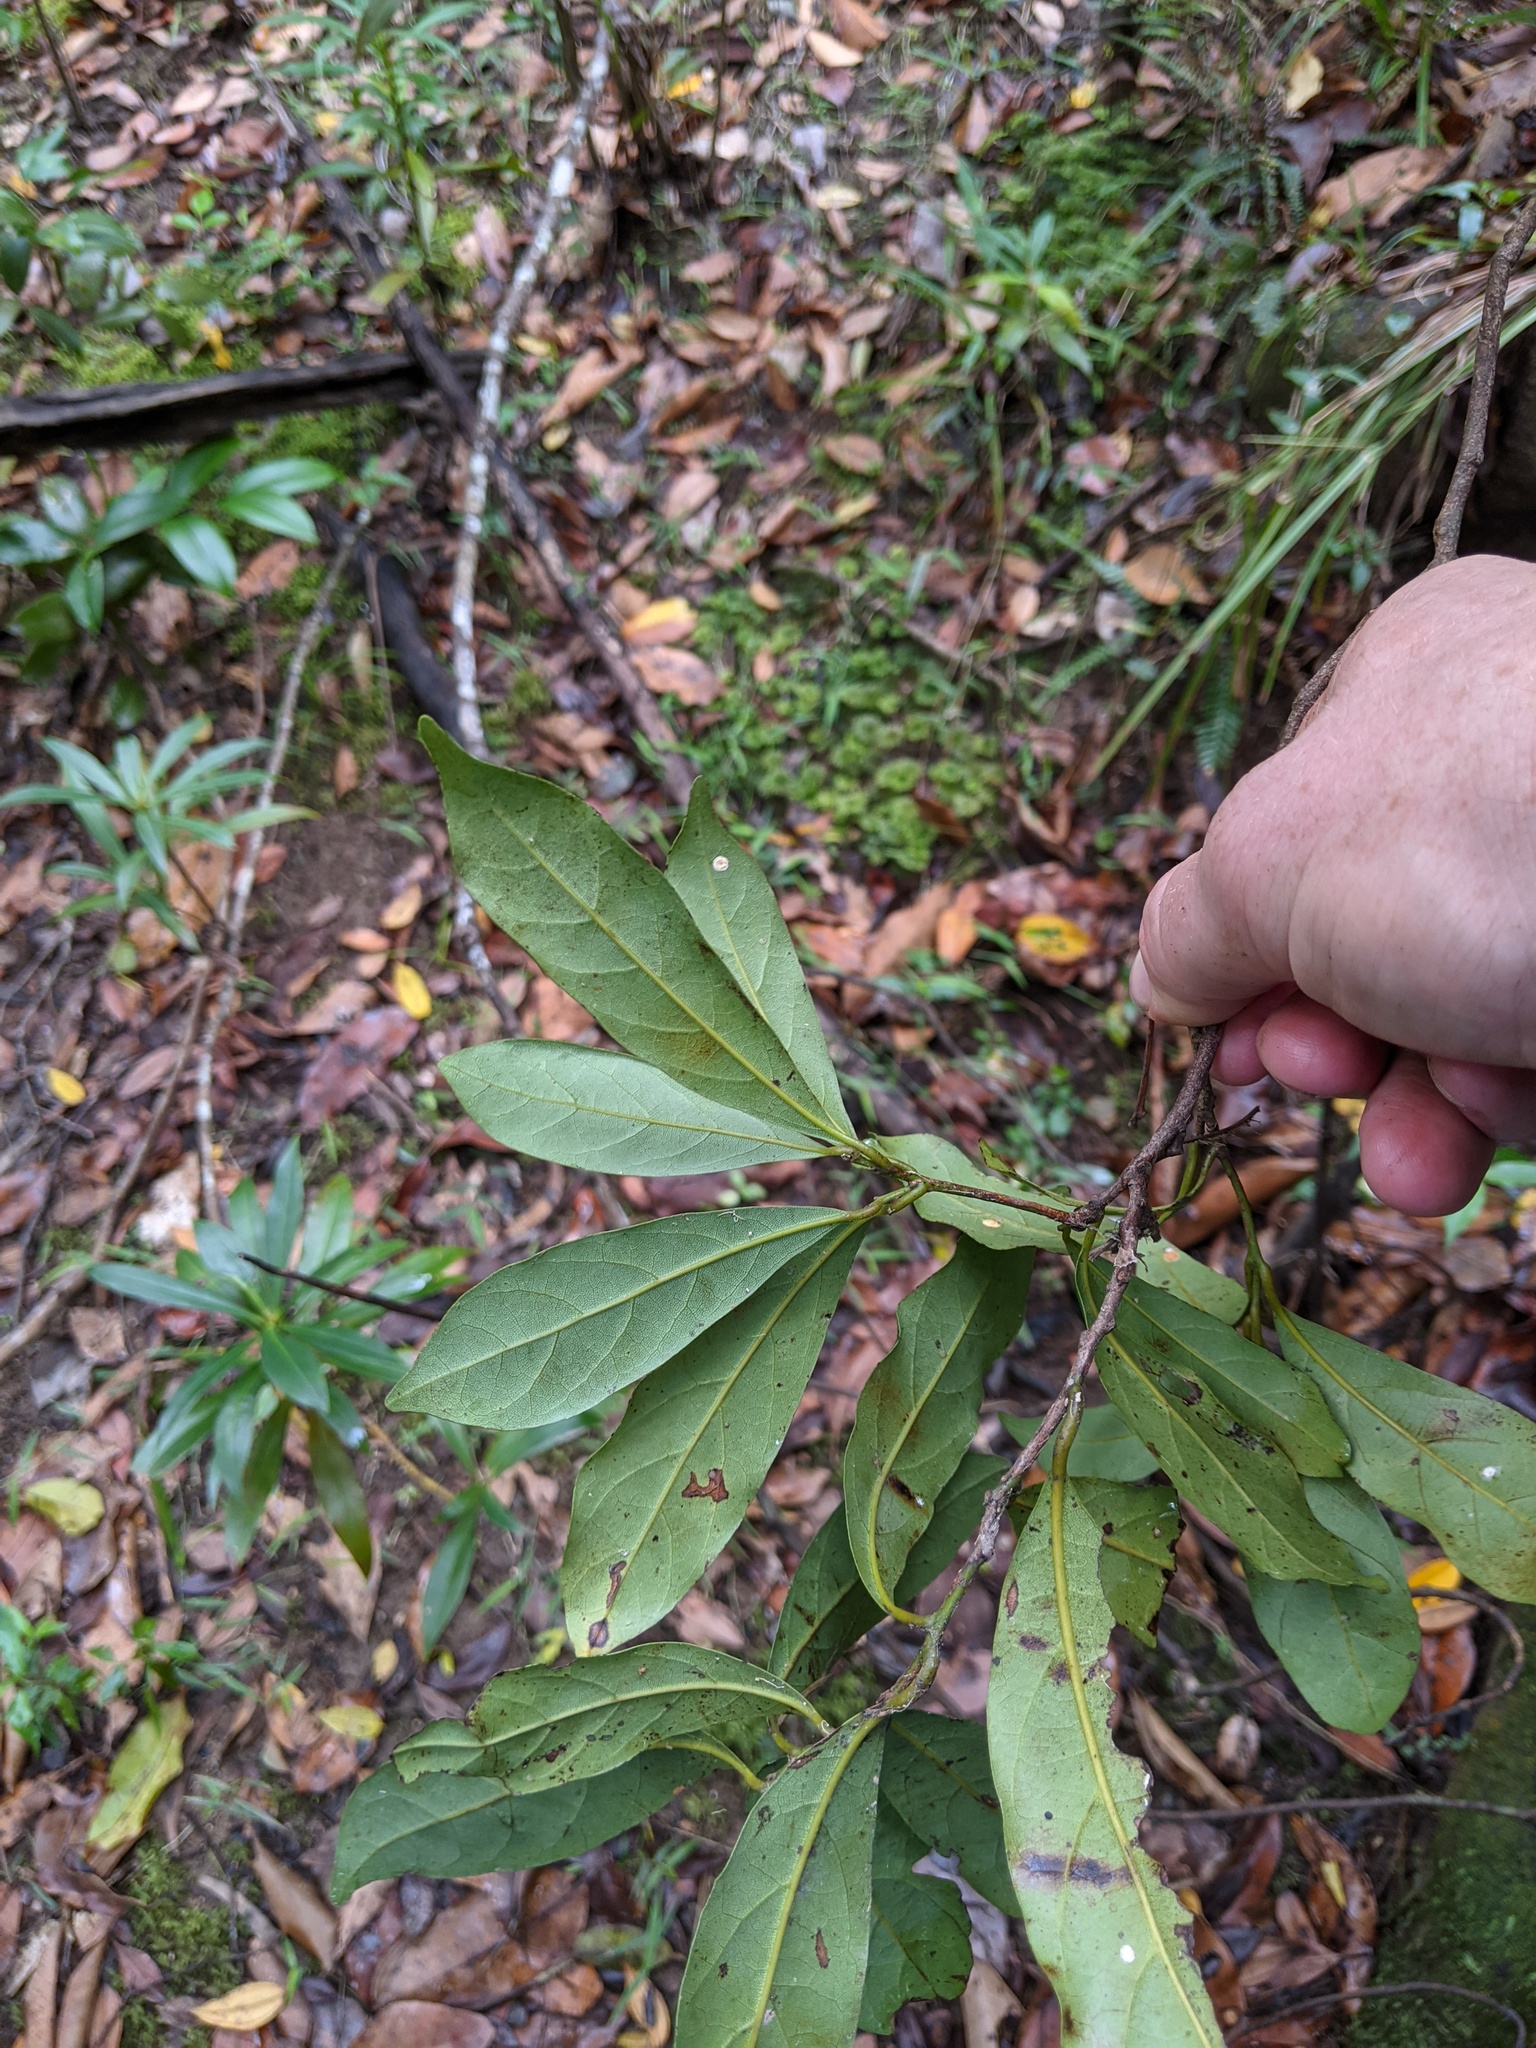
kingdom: Plantae
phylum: Tracheophyta
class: Magnoliopsida
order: Laurales
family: Lauraceae
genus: Cryptocarya
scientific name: Cryptocarya macdonaldii
